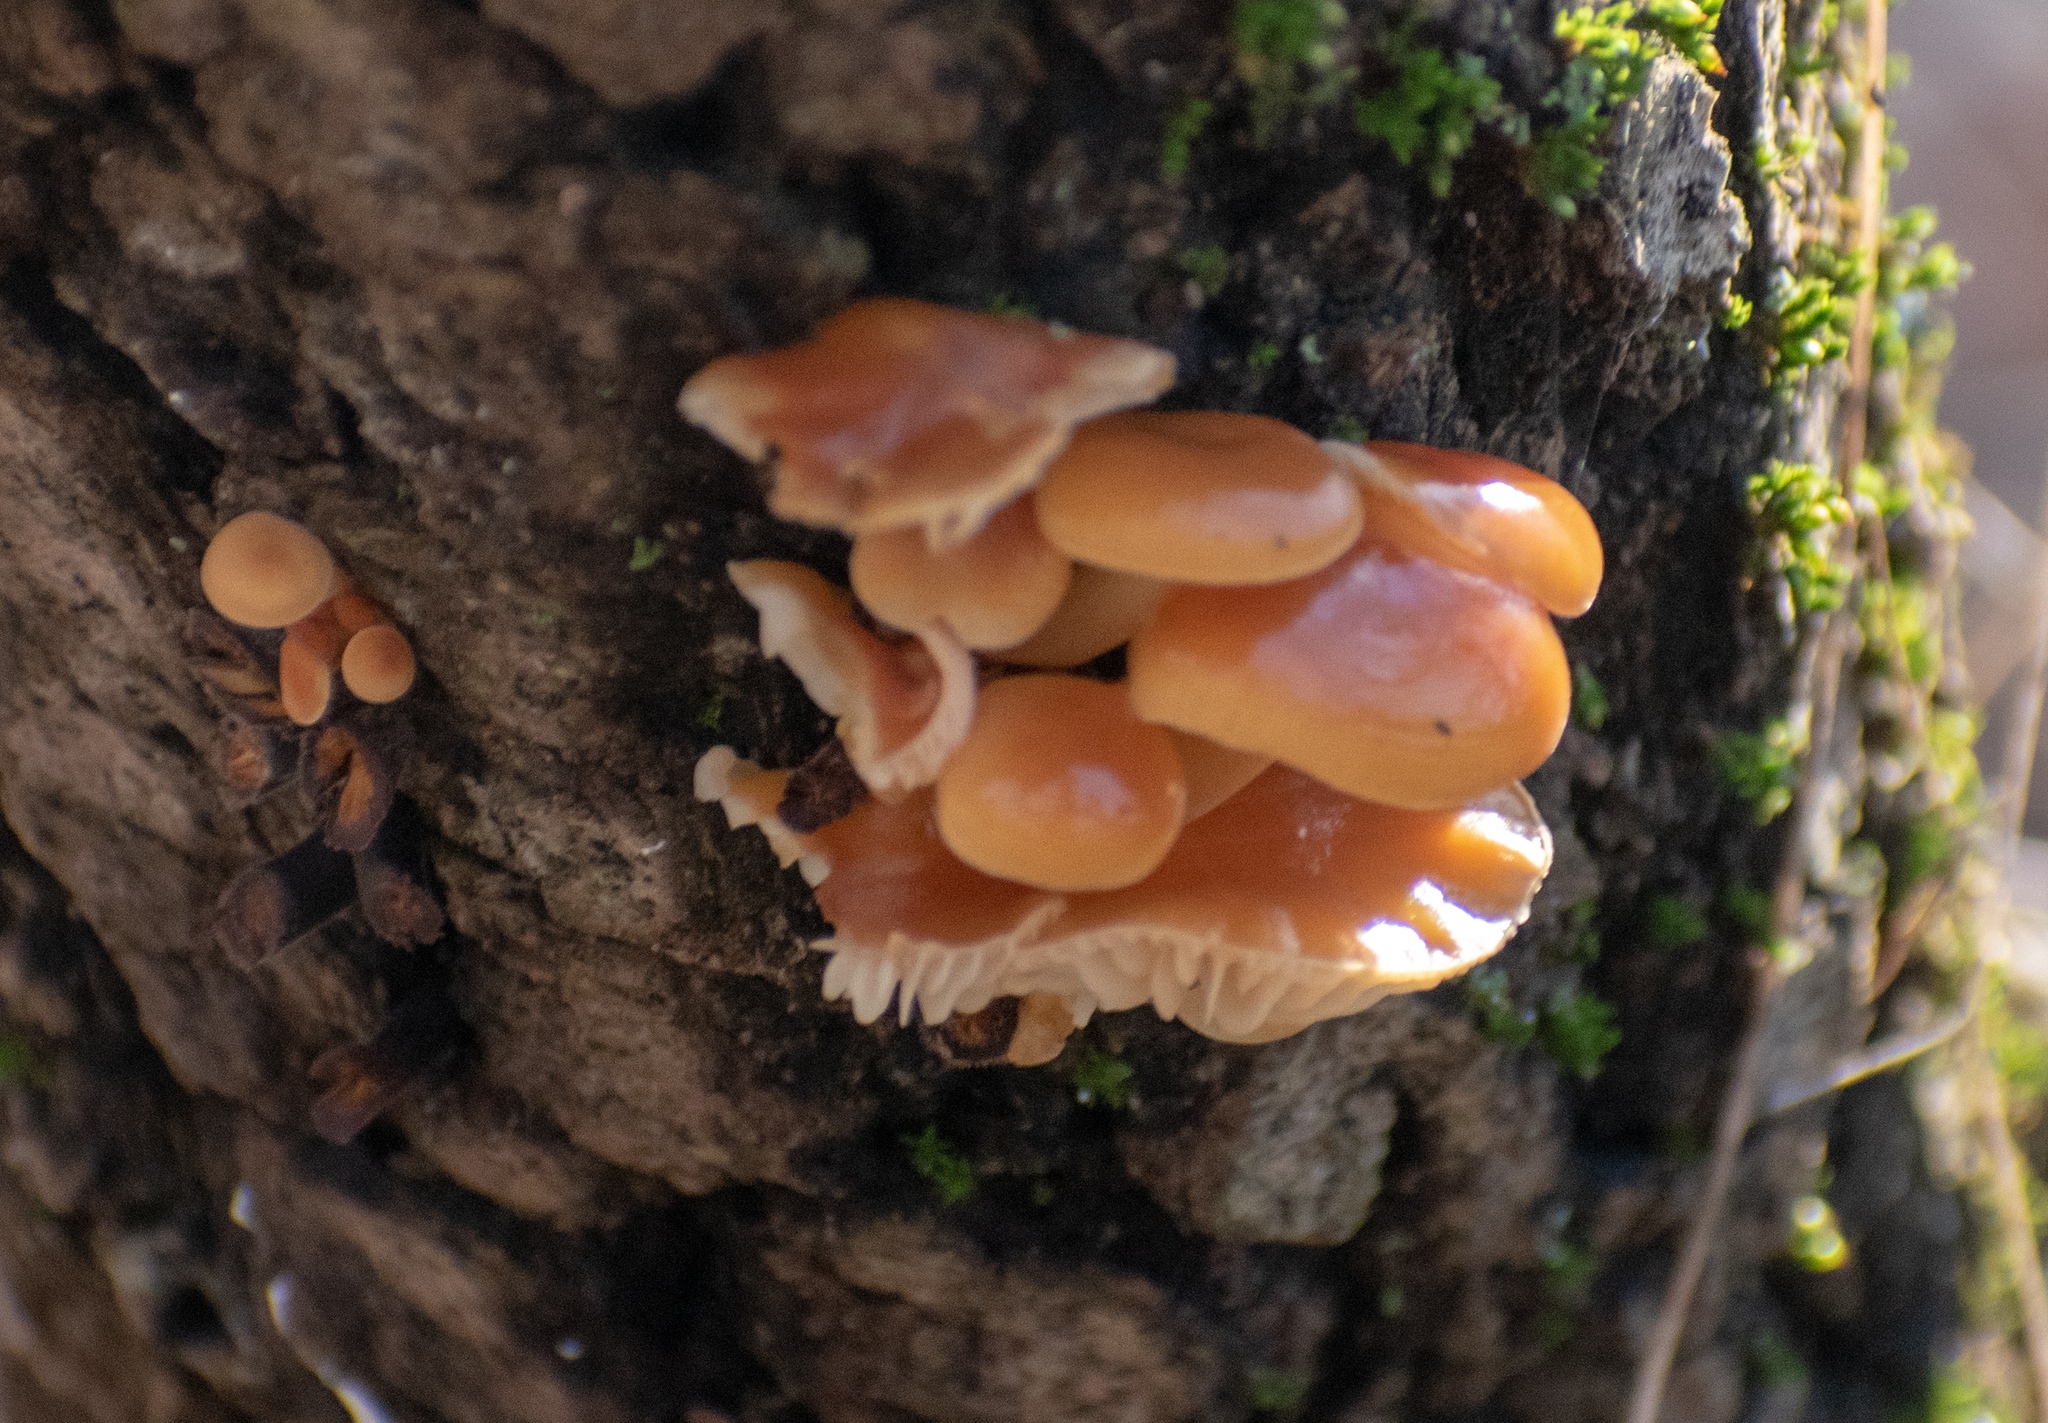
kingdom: Fungi
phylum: Basidiomycota
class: Agaricomycetes
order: Agaricales
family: Physalacriaceae
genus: Flammulina
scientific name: Flammulina
